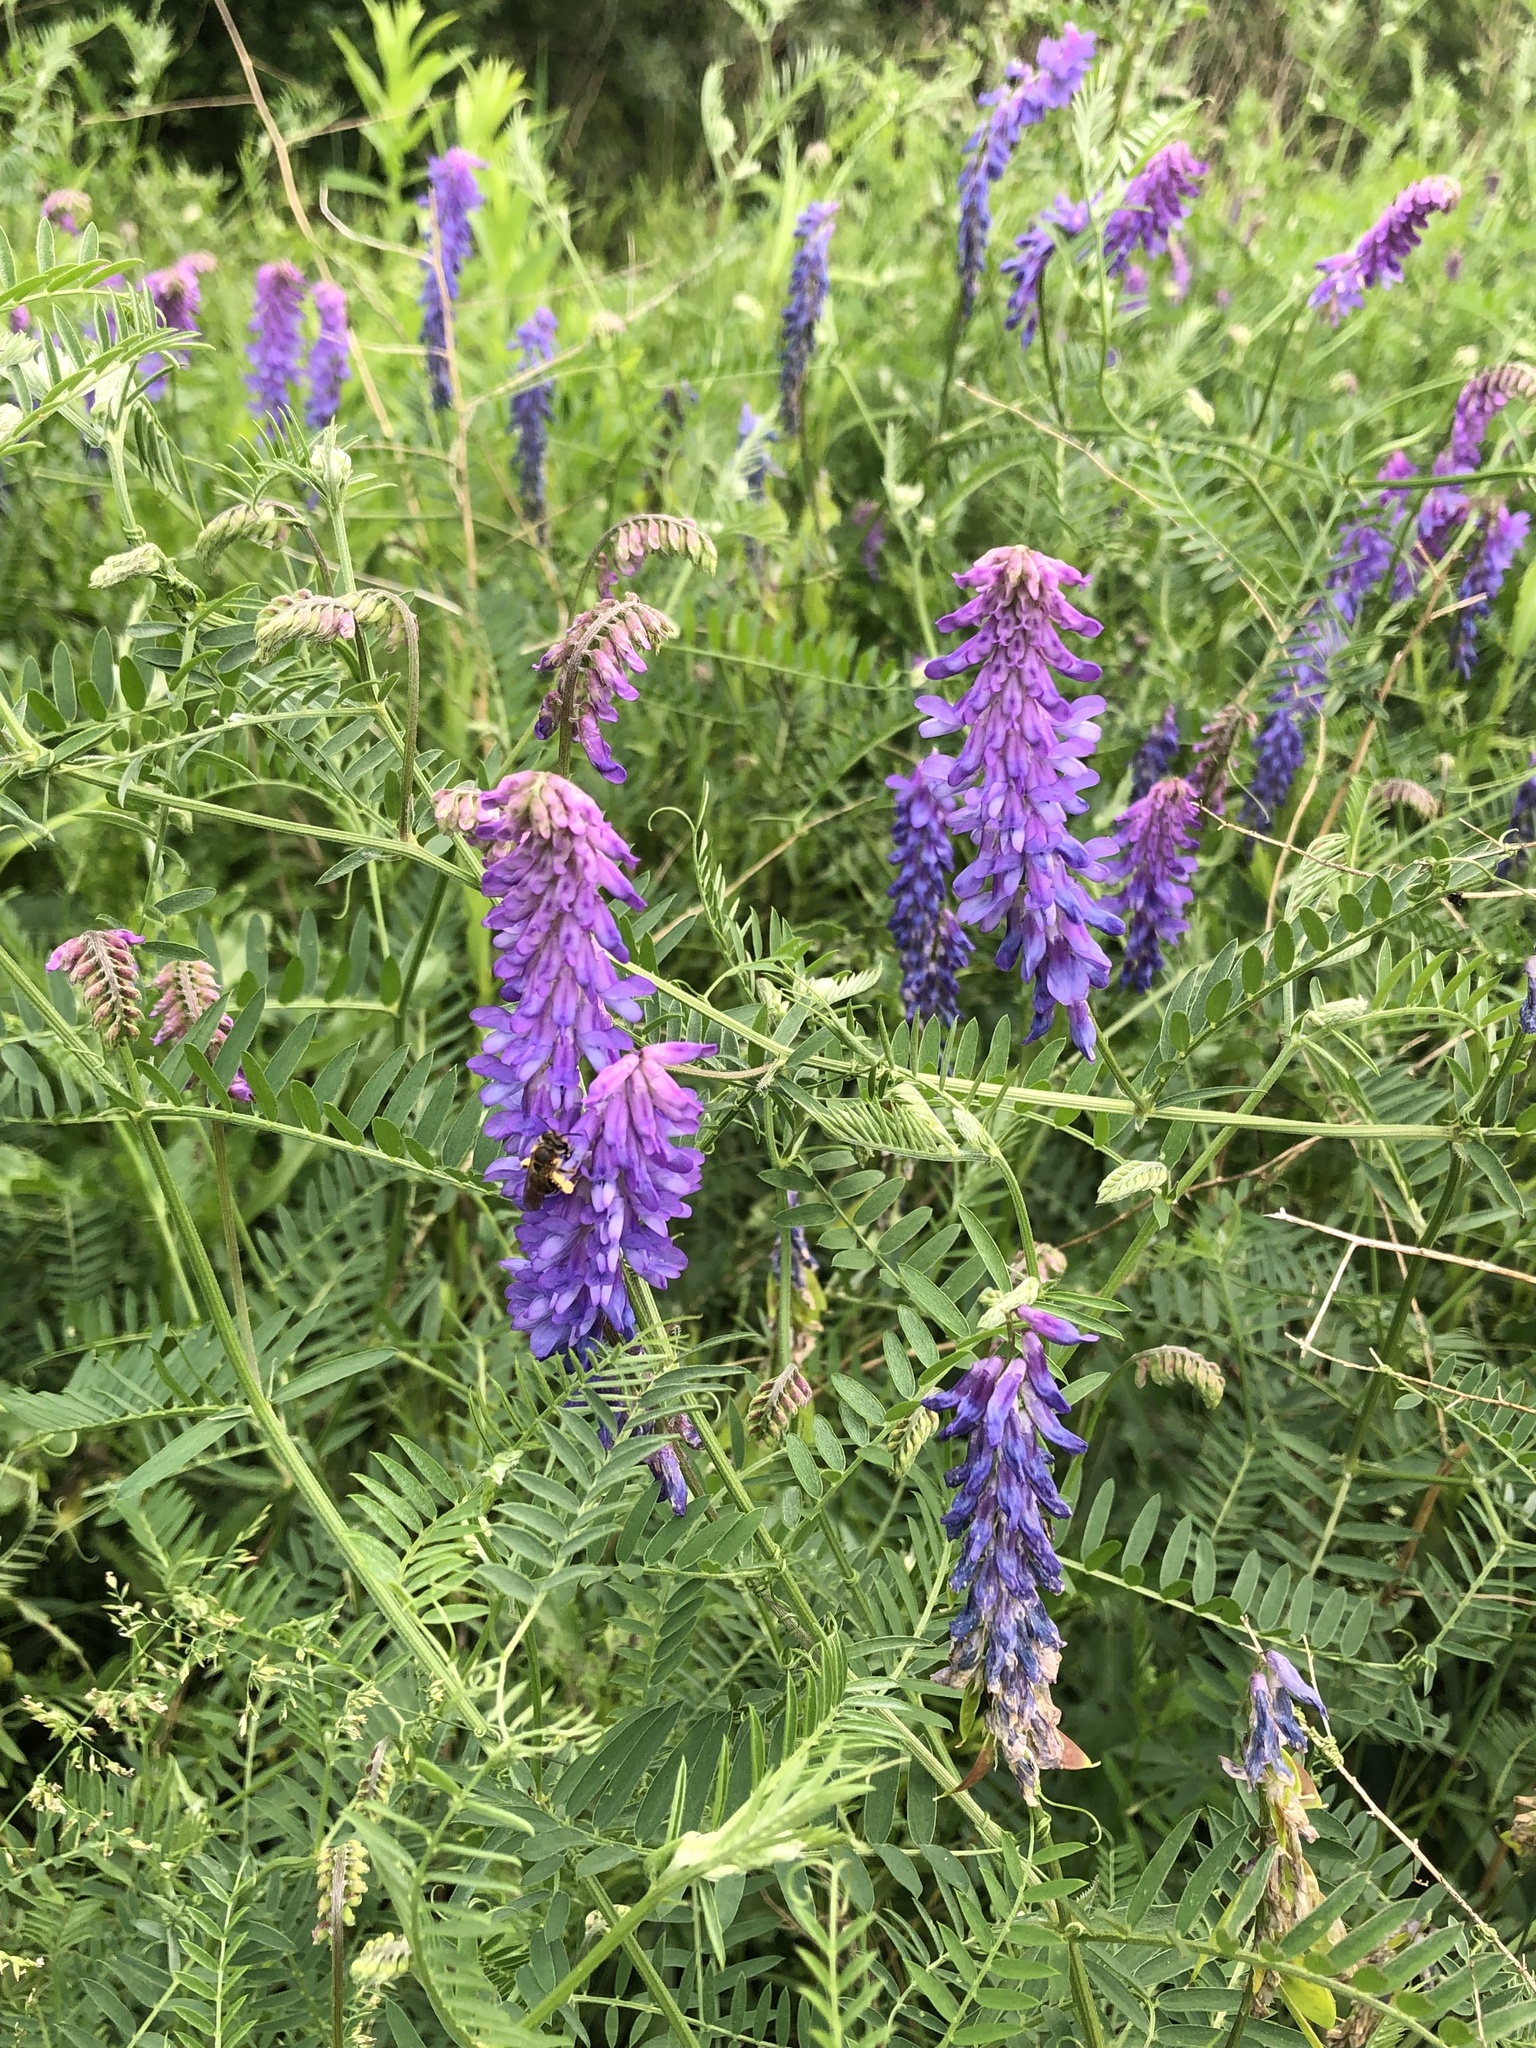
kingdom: Plantae
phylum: Tracheophyta
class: Magnoliopsida
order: Fabales
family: Fabaceae
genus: Vicia
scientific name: Vicia cracca
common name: Bird vetch
